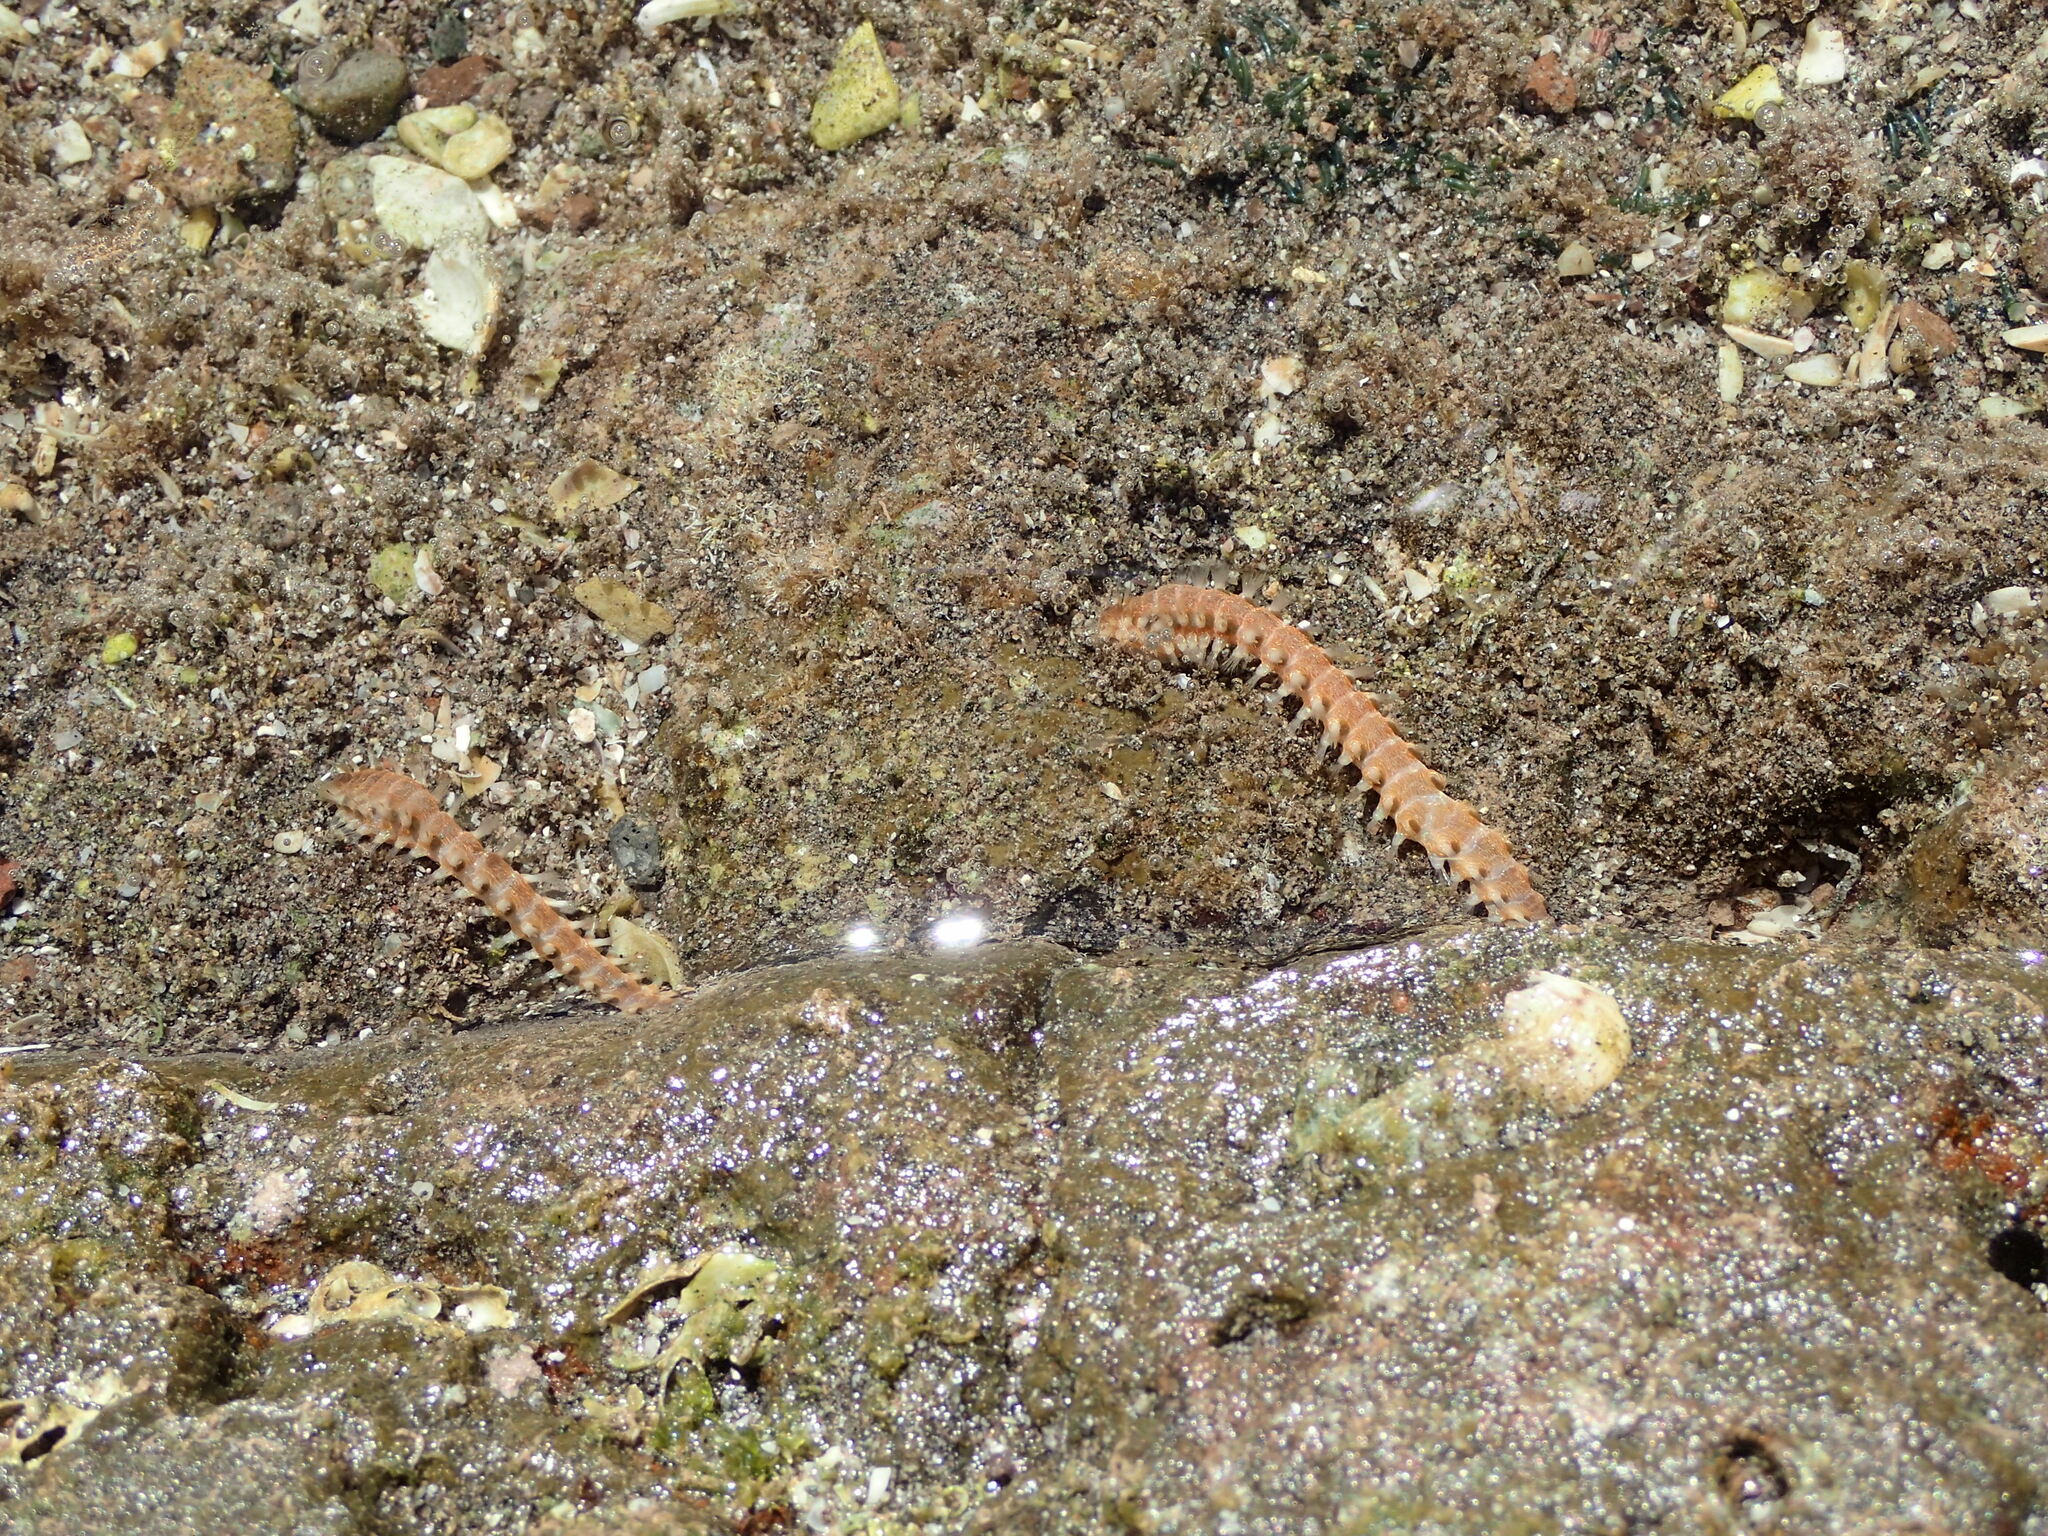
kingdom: Animalia
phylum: Annelida
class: Polychaeta
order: Amphinomida
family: Amphinomidae
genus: Eurythoe
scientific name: Eurythoe complanata
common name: Fireworm
